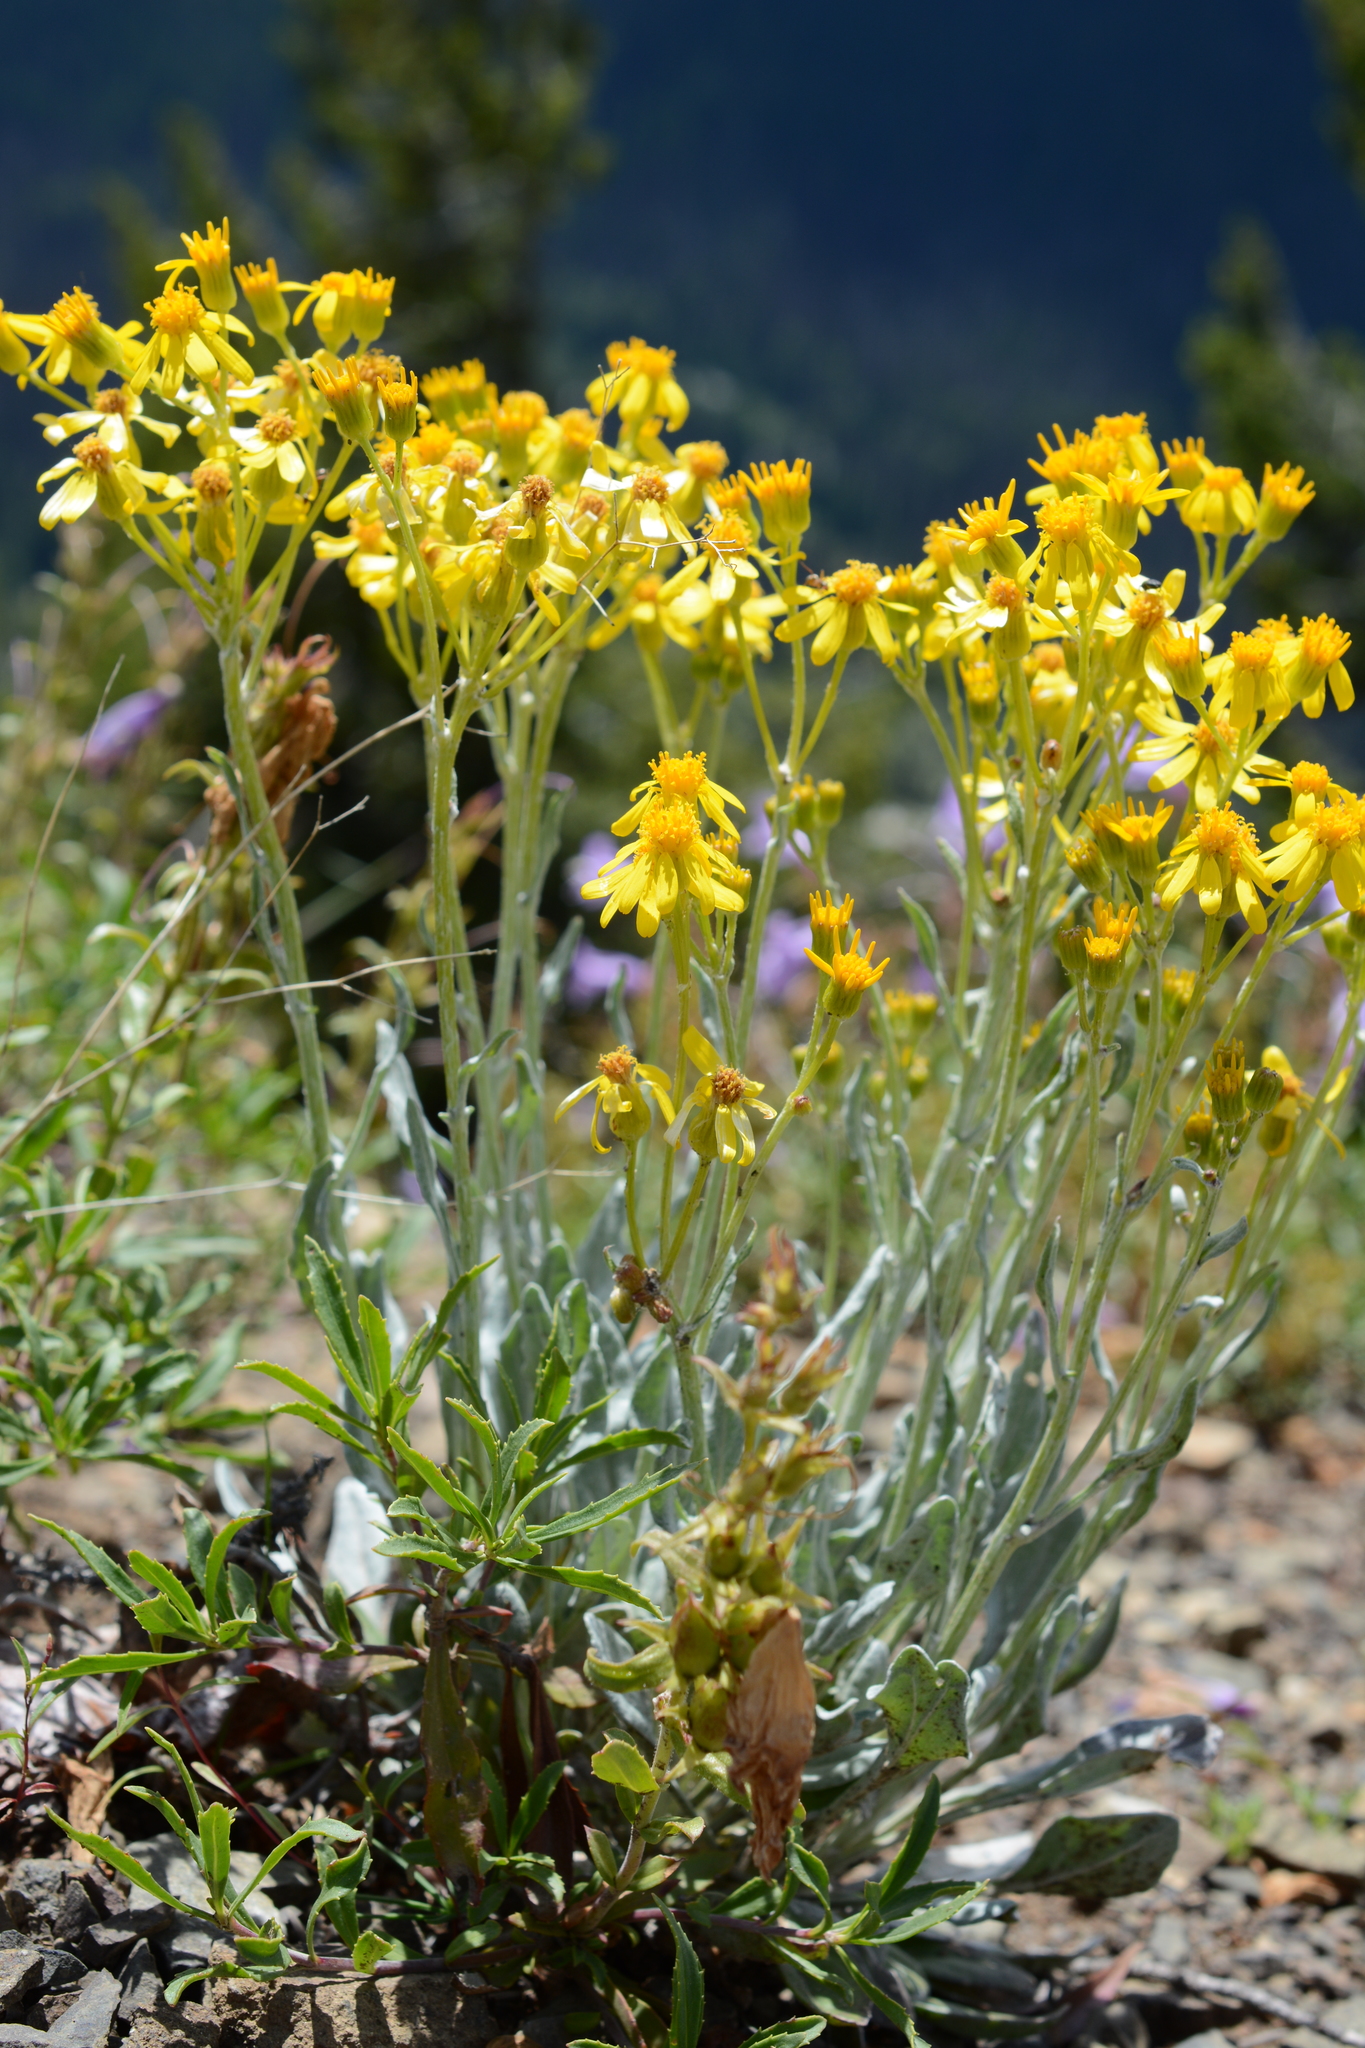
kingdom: Plantae
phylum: Tracheophyta
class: Magnoliopsida
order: Asterales
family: Asteraceae
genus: Packera
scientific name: Packera cana
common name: Woolly groundsel
